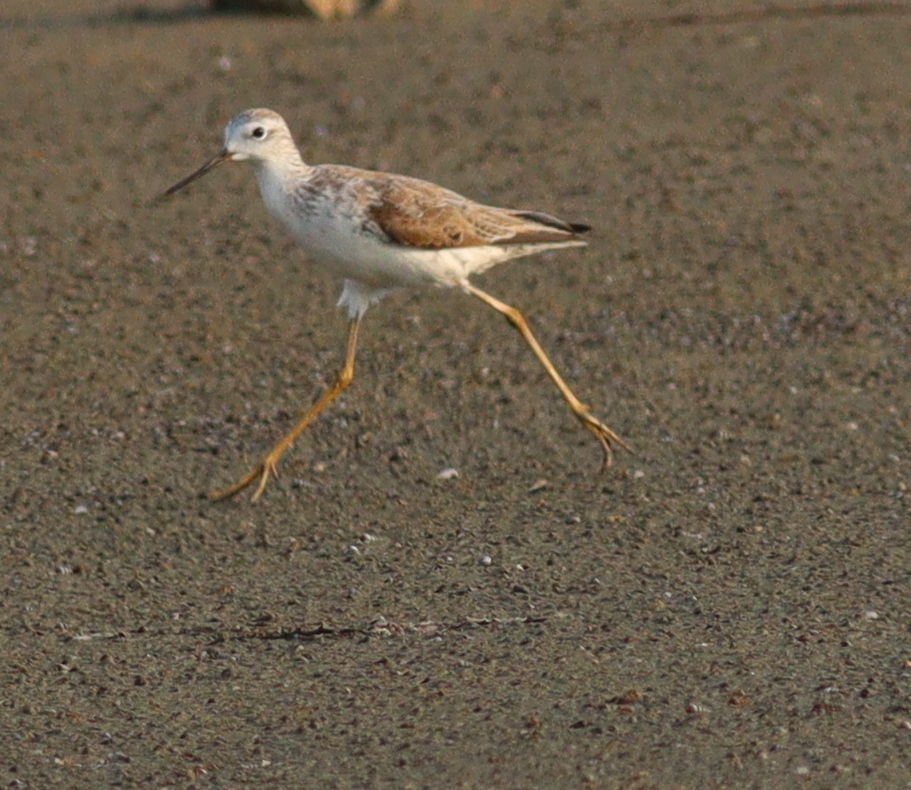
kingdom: Animalia
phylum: Chordata
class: Aves
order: Charadriiformes
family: Scolopacidae
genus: Tringa
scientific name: Tringa stagnatilis
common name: Marsh sandpiper
